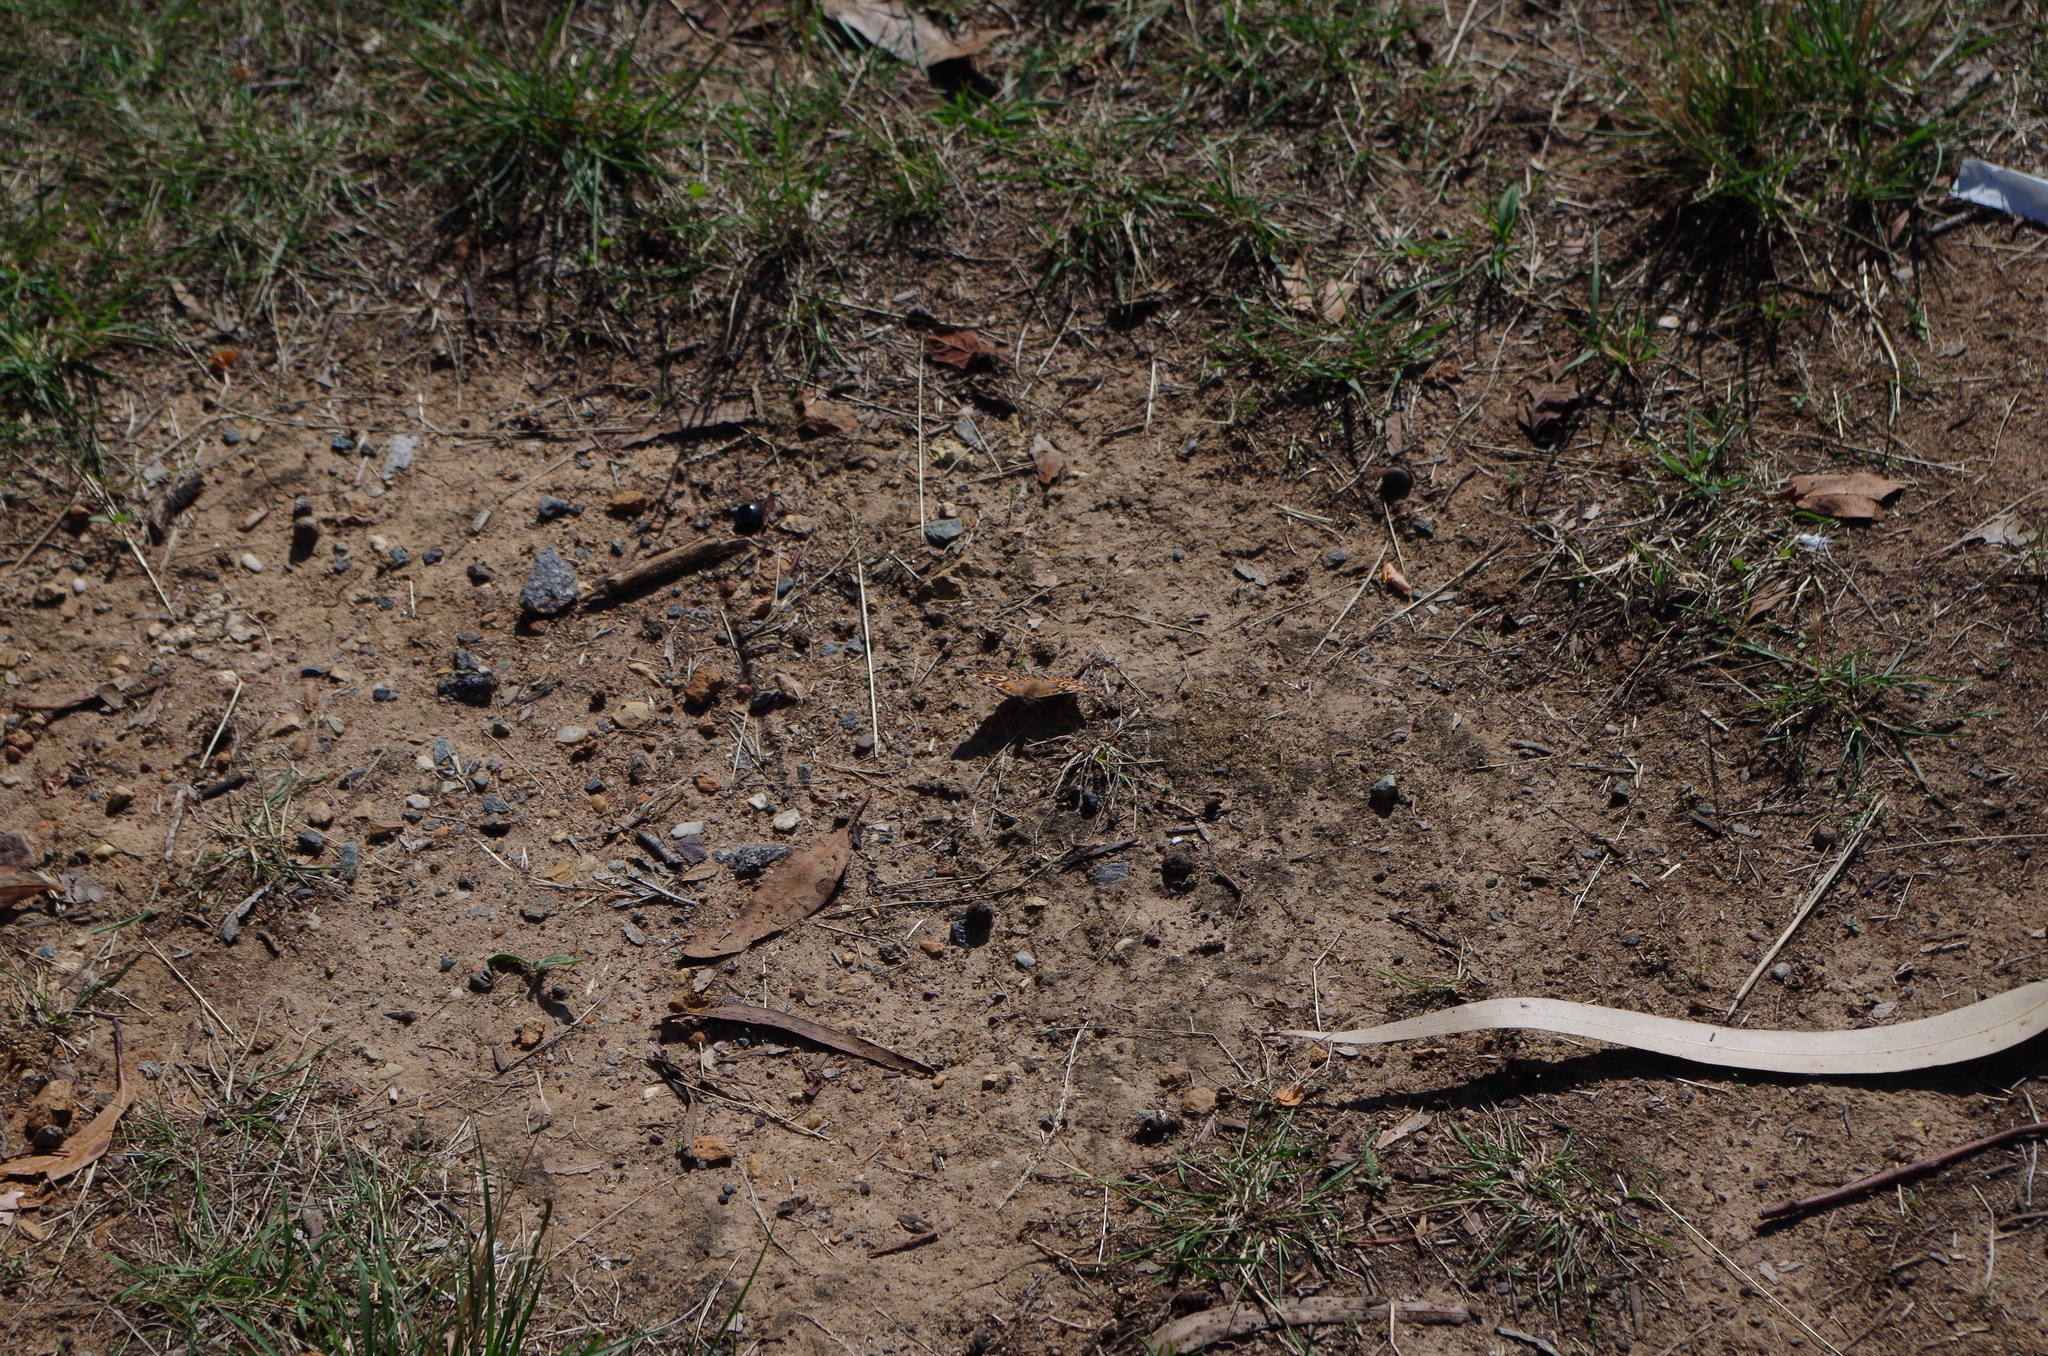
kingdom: Animalia
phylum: Arthropoda
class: Insecta
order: Lepidoptera
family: Nymphalidae
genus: Junonia
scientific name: Junonia villida
